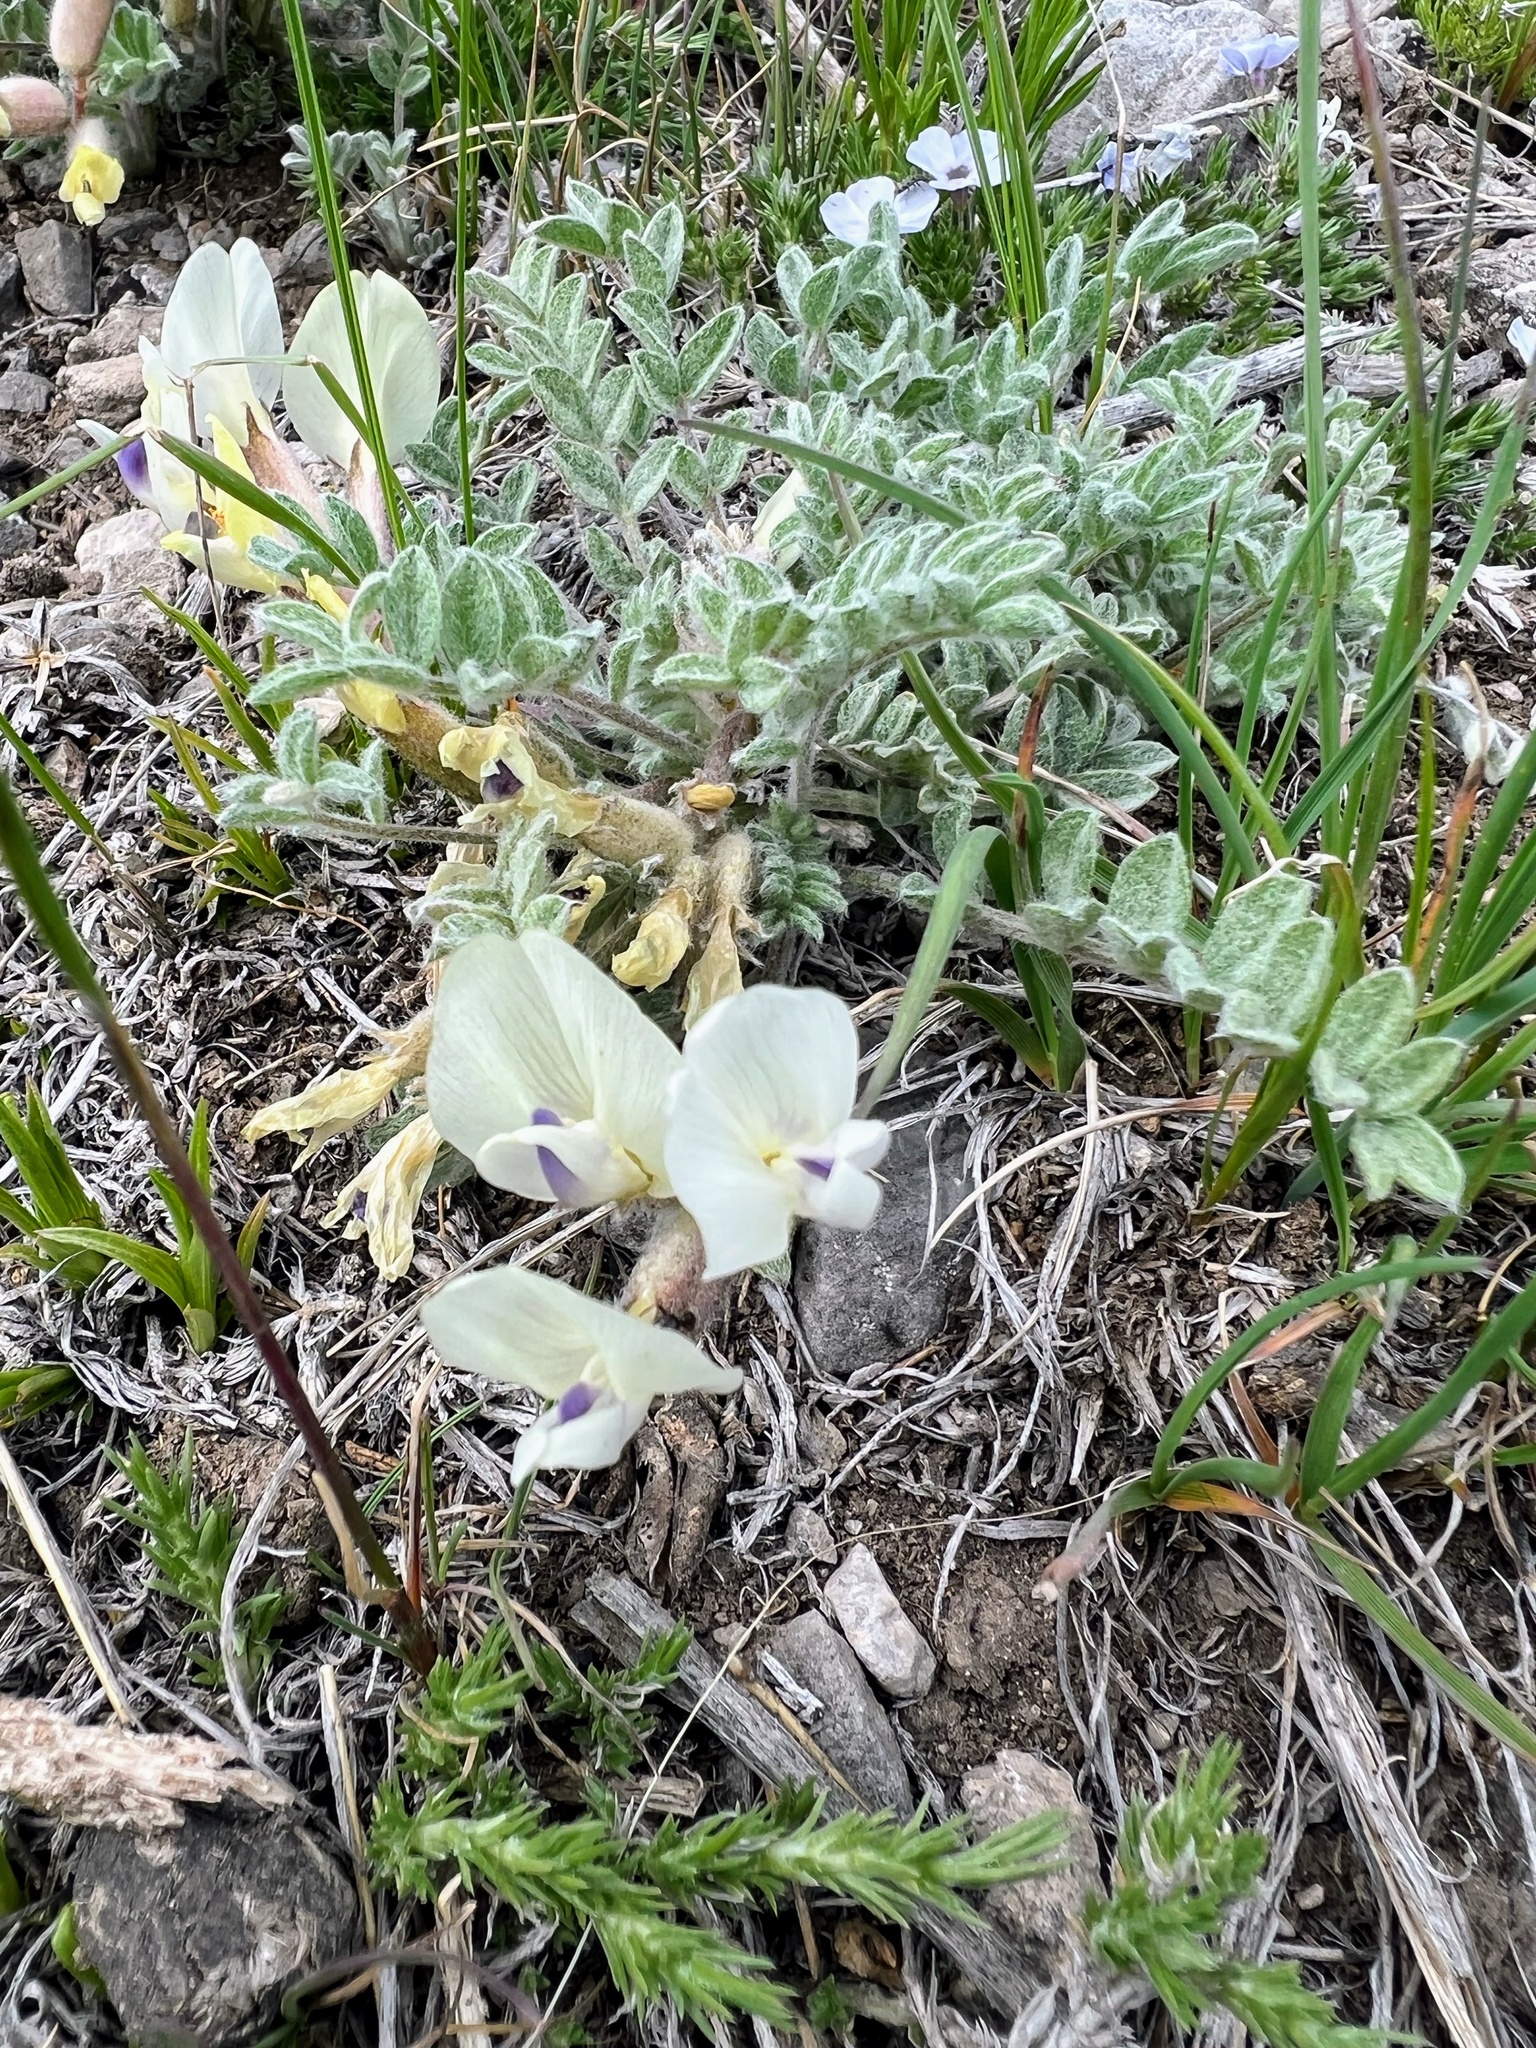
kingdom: Plantae
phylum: Tracheophyta
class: Magnoliopsida
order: Fabales
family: Fabaceae
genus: Astragalus
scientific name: Astragalus purshii
